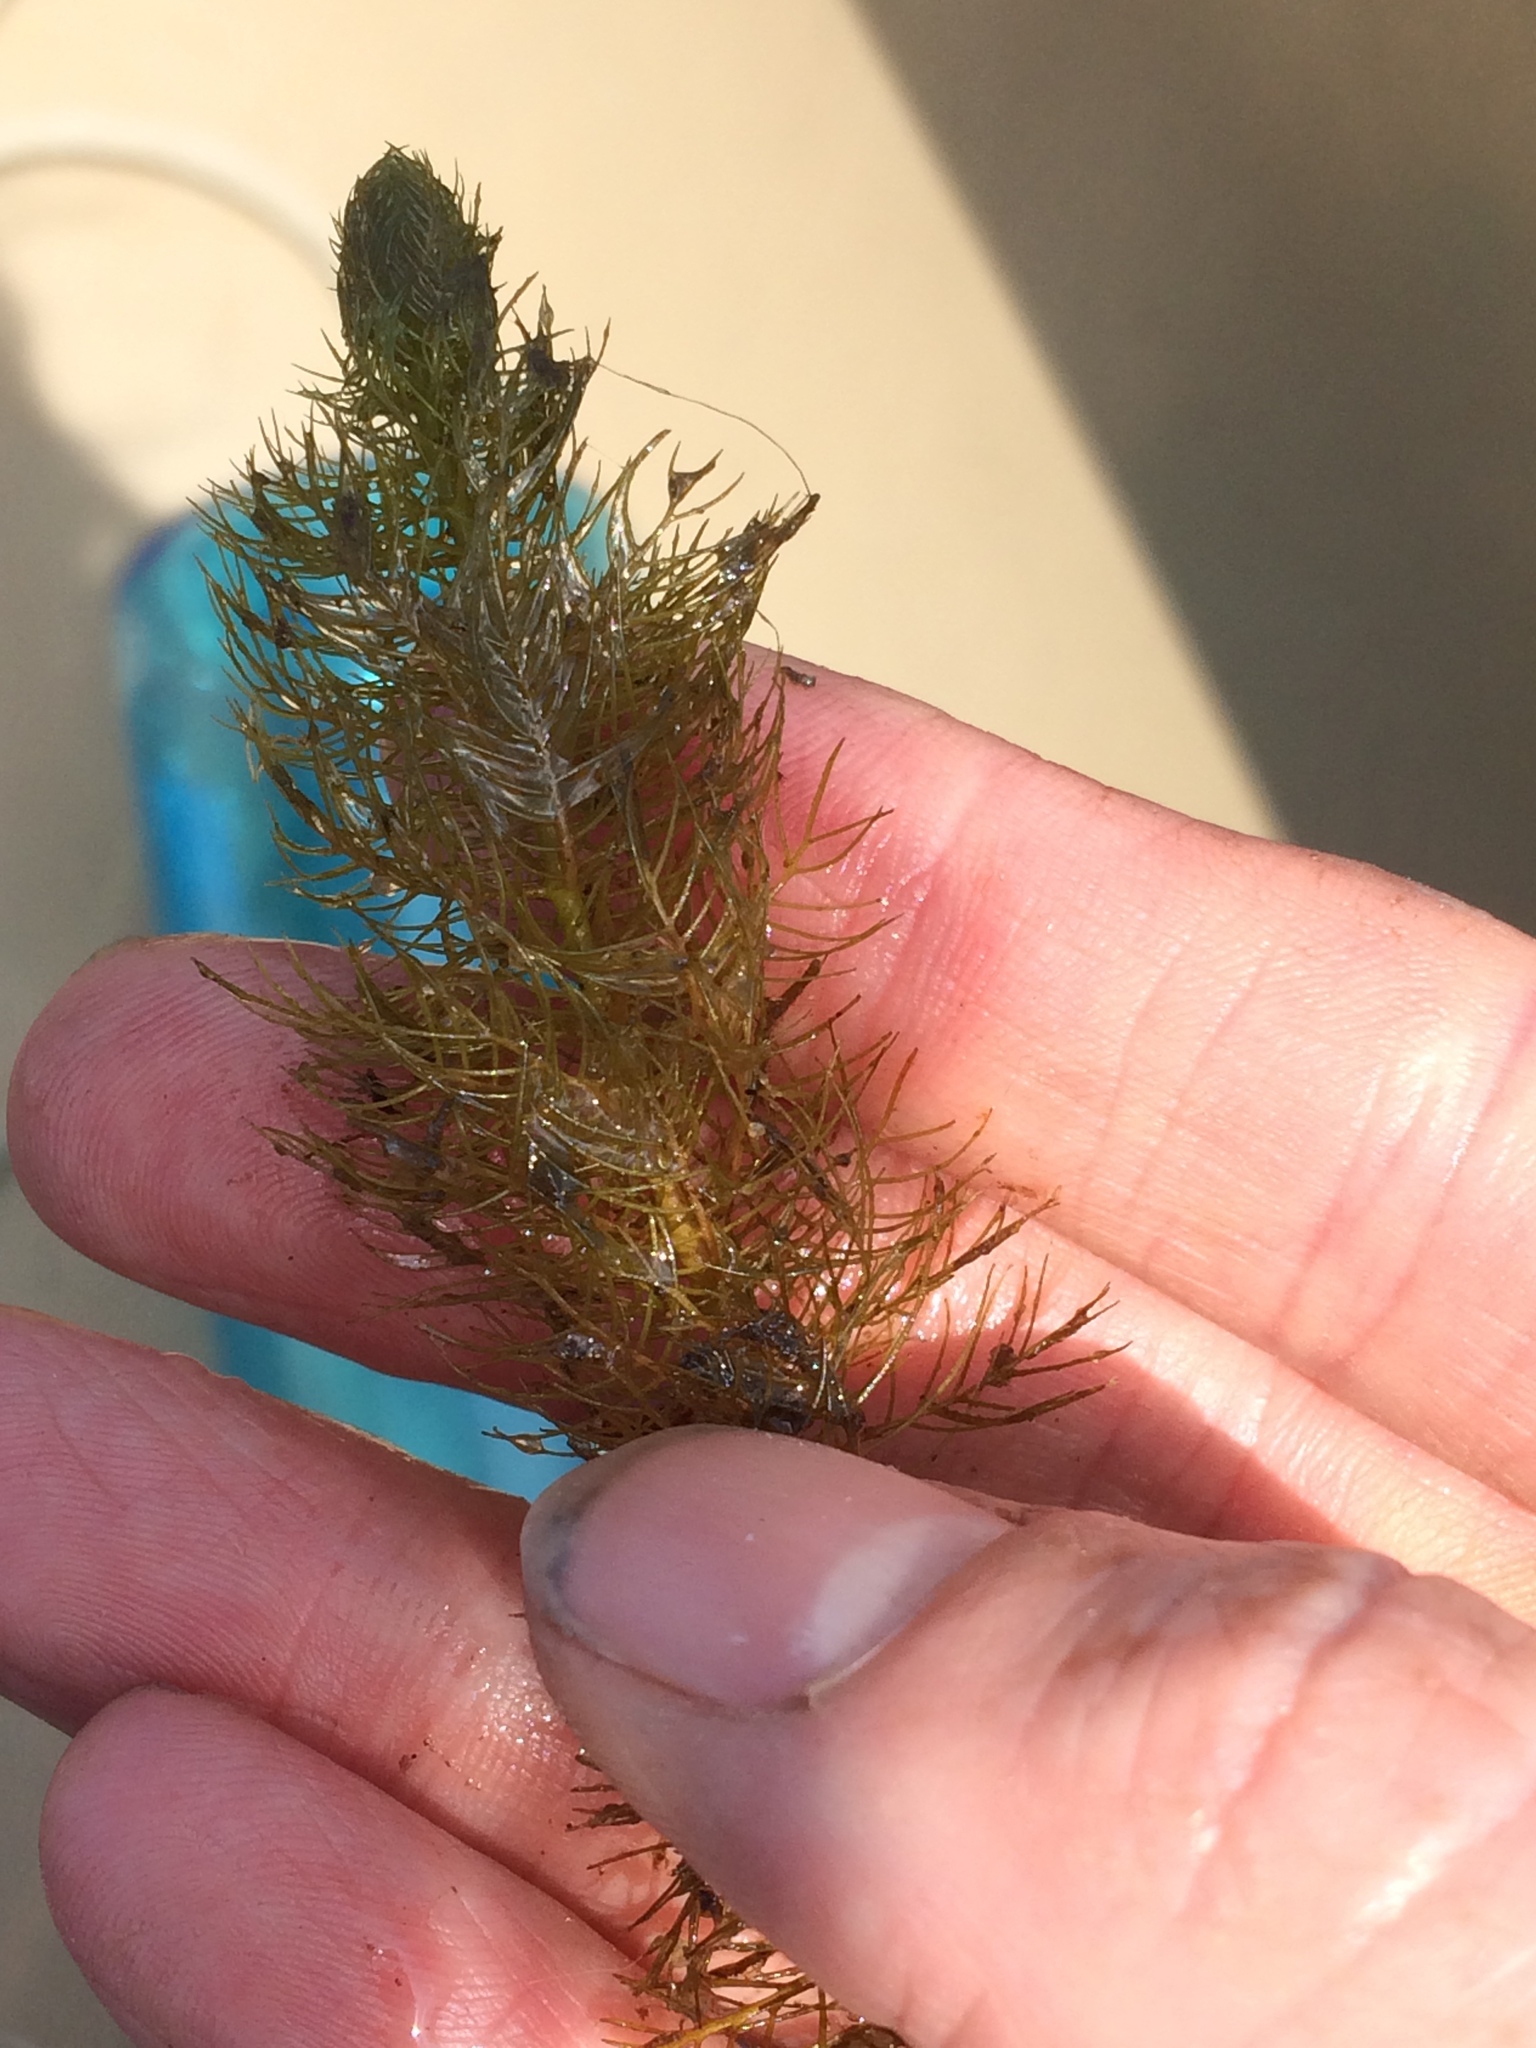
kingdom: Plantae
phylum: Tracheophyta
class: Magnoliopsida
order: Saxifragales
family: Haloragaceae
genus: Myriophyllum
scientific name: Myriophyllum verticillatum
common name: Whorled water-milfoil
